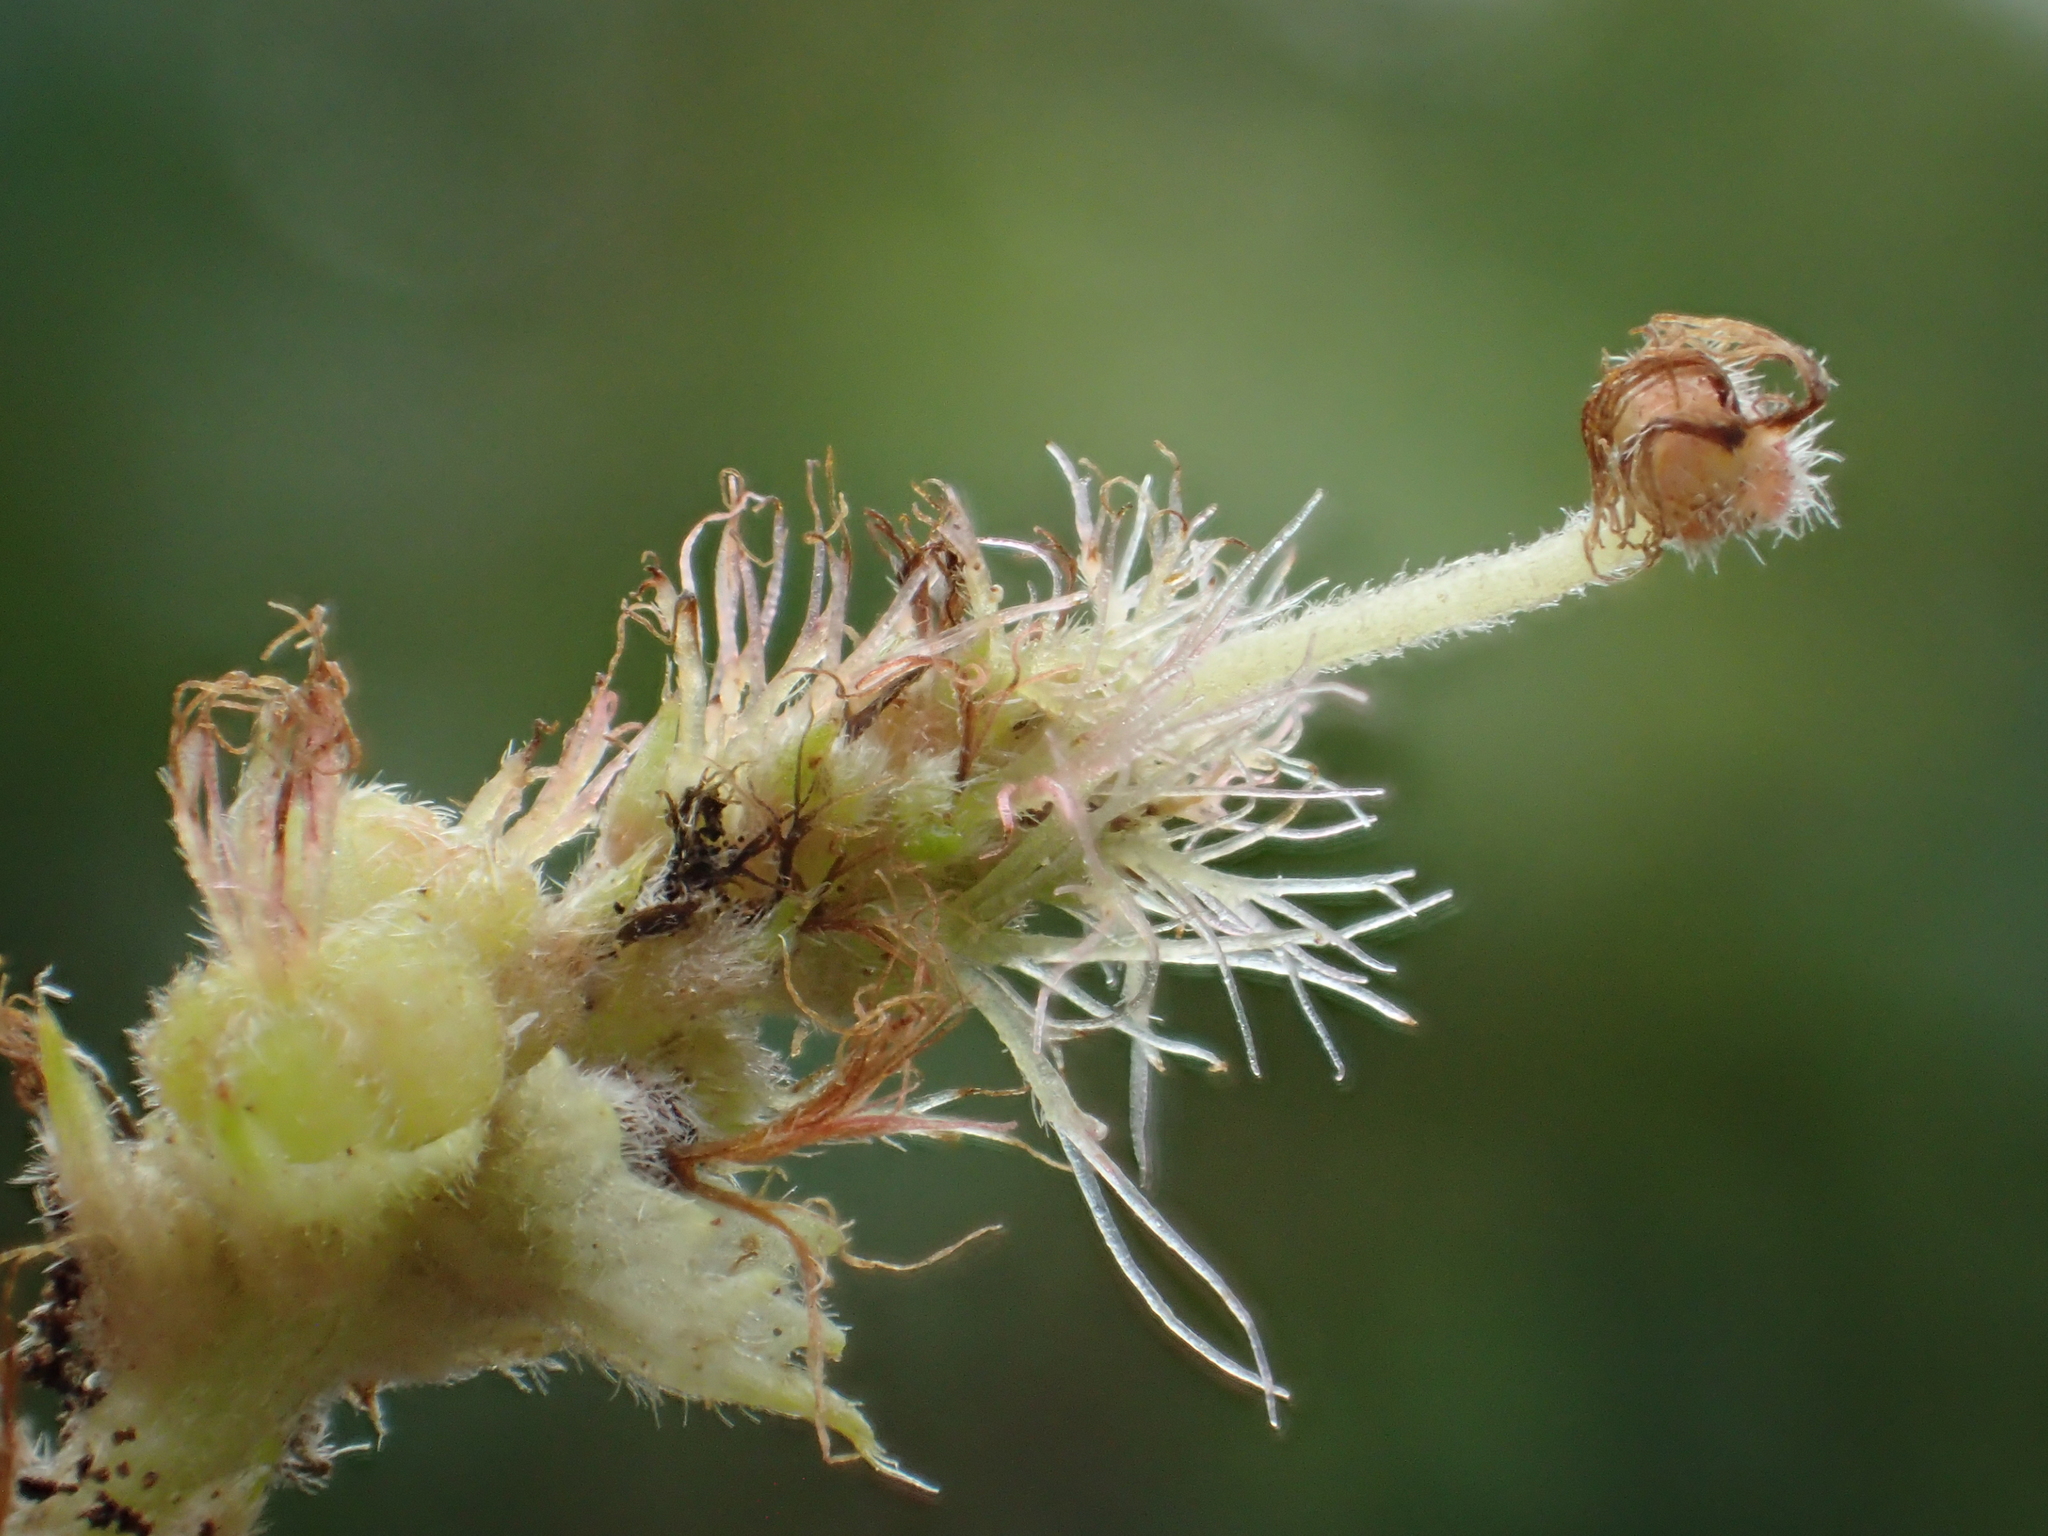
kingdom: Plantae
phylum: Tracheophyta
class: Magnoliopsida
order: Malpighiales
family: Euphorbiaceae
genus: Acalypha
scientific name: Acalypha angatensis
